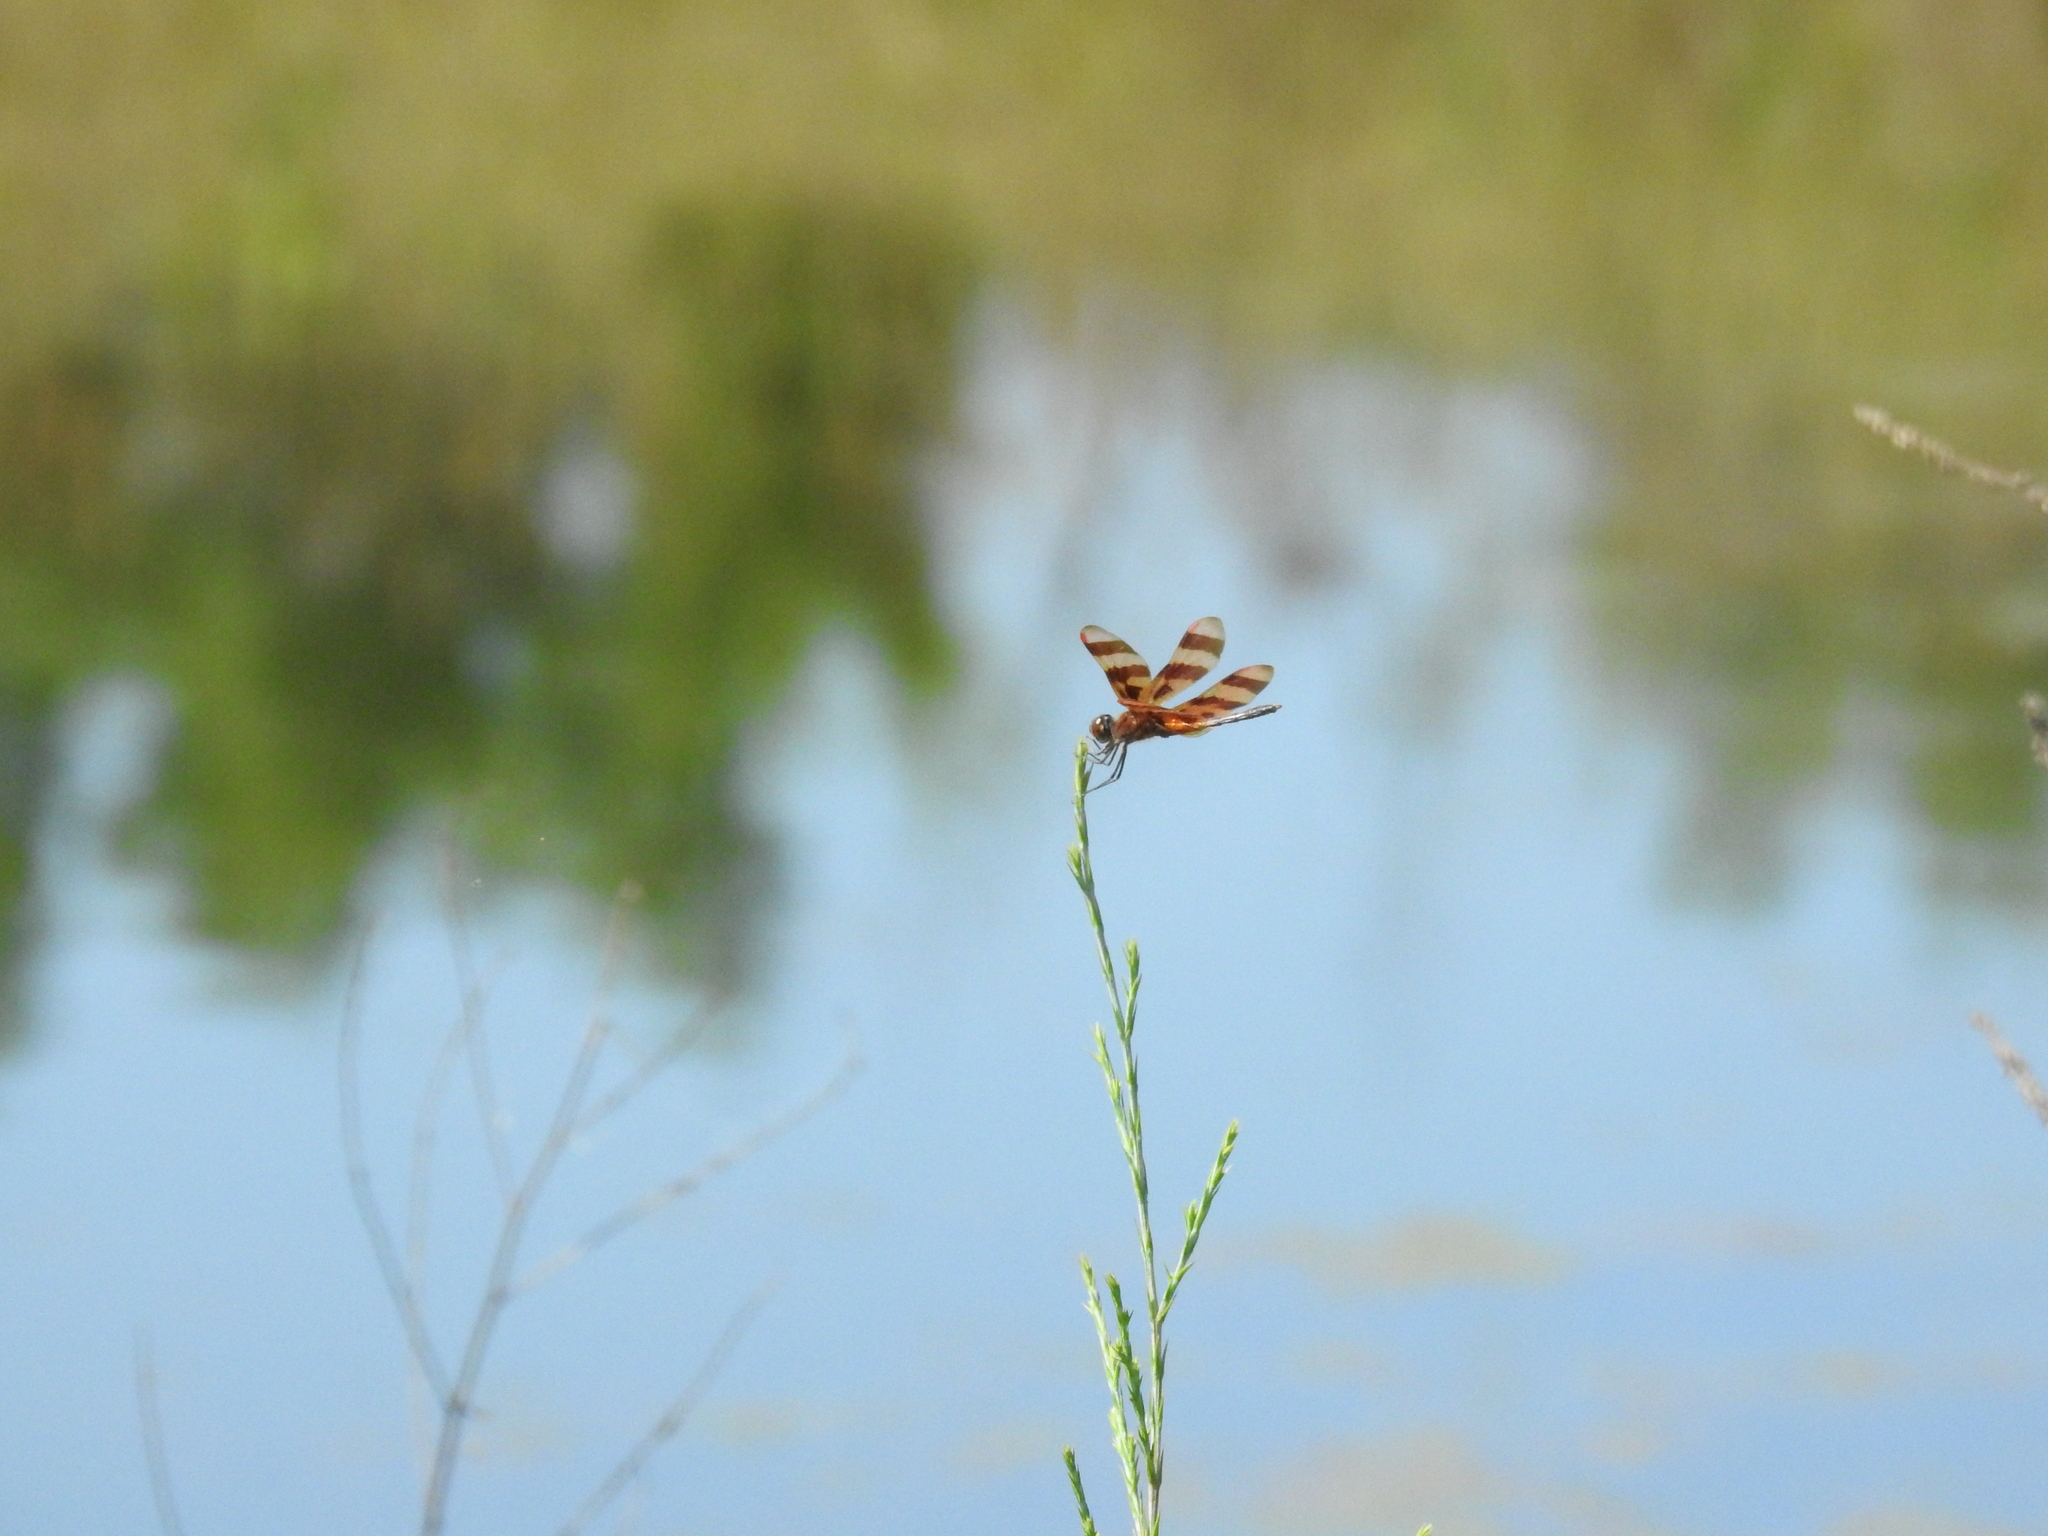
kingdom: Animalia
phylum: Arthropoda
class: Insecta
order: Odonata
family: Libellulidae
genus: Celithemis
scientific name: Celithemis eponina
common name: Halloween pennant
